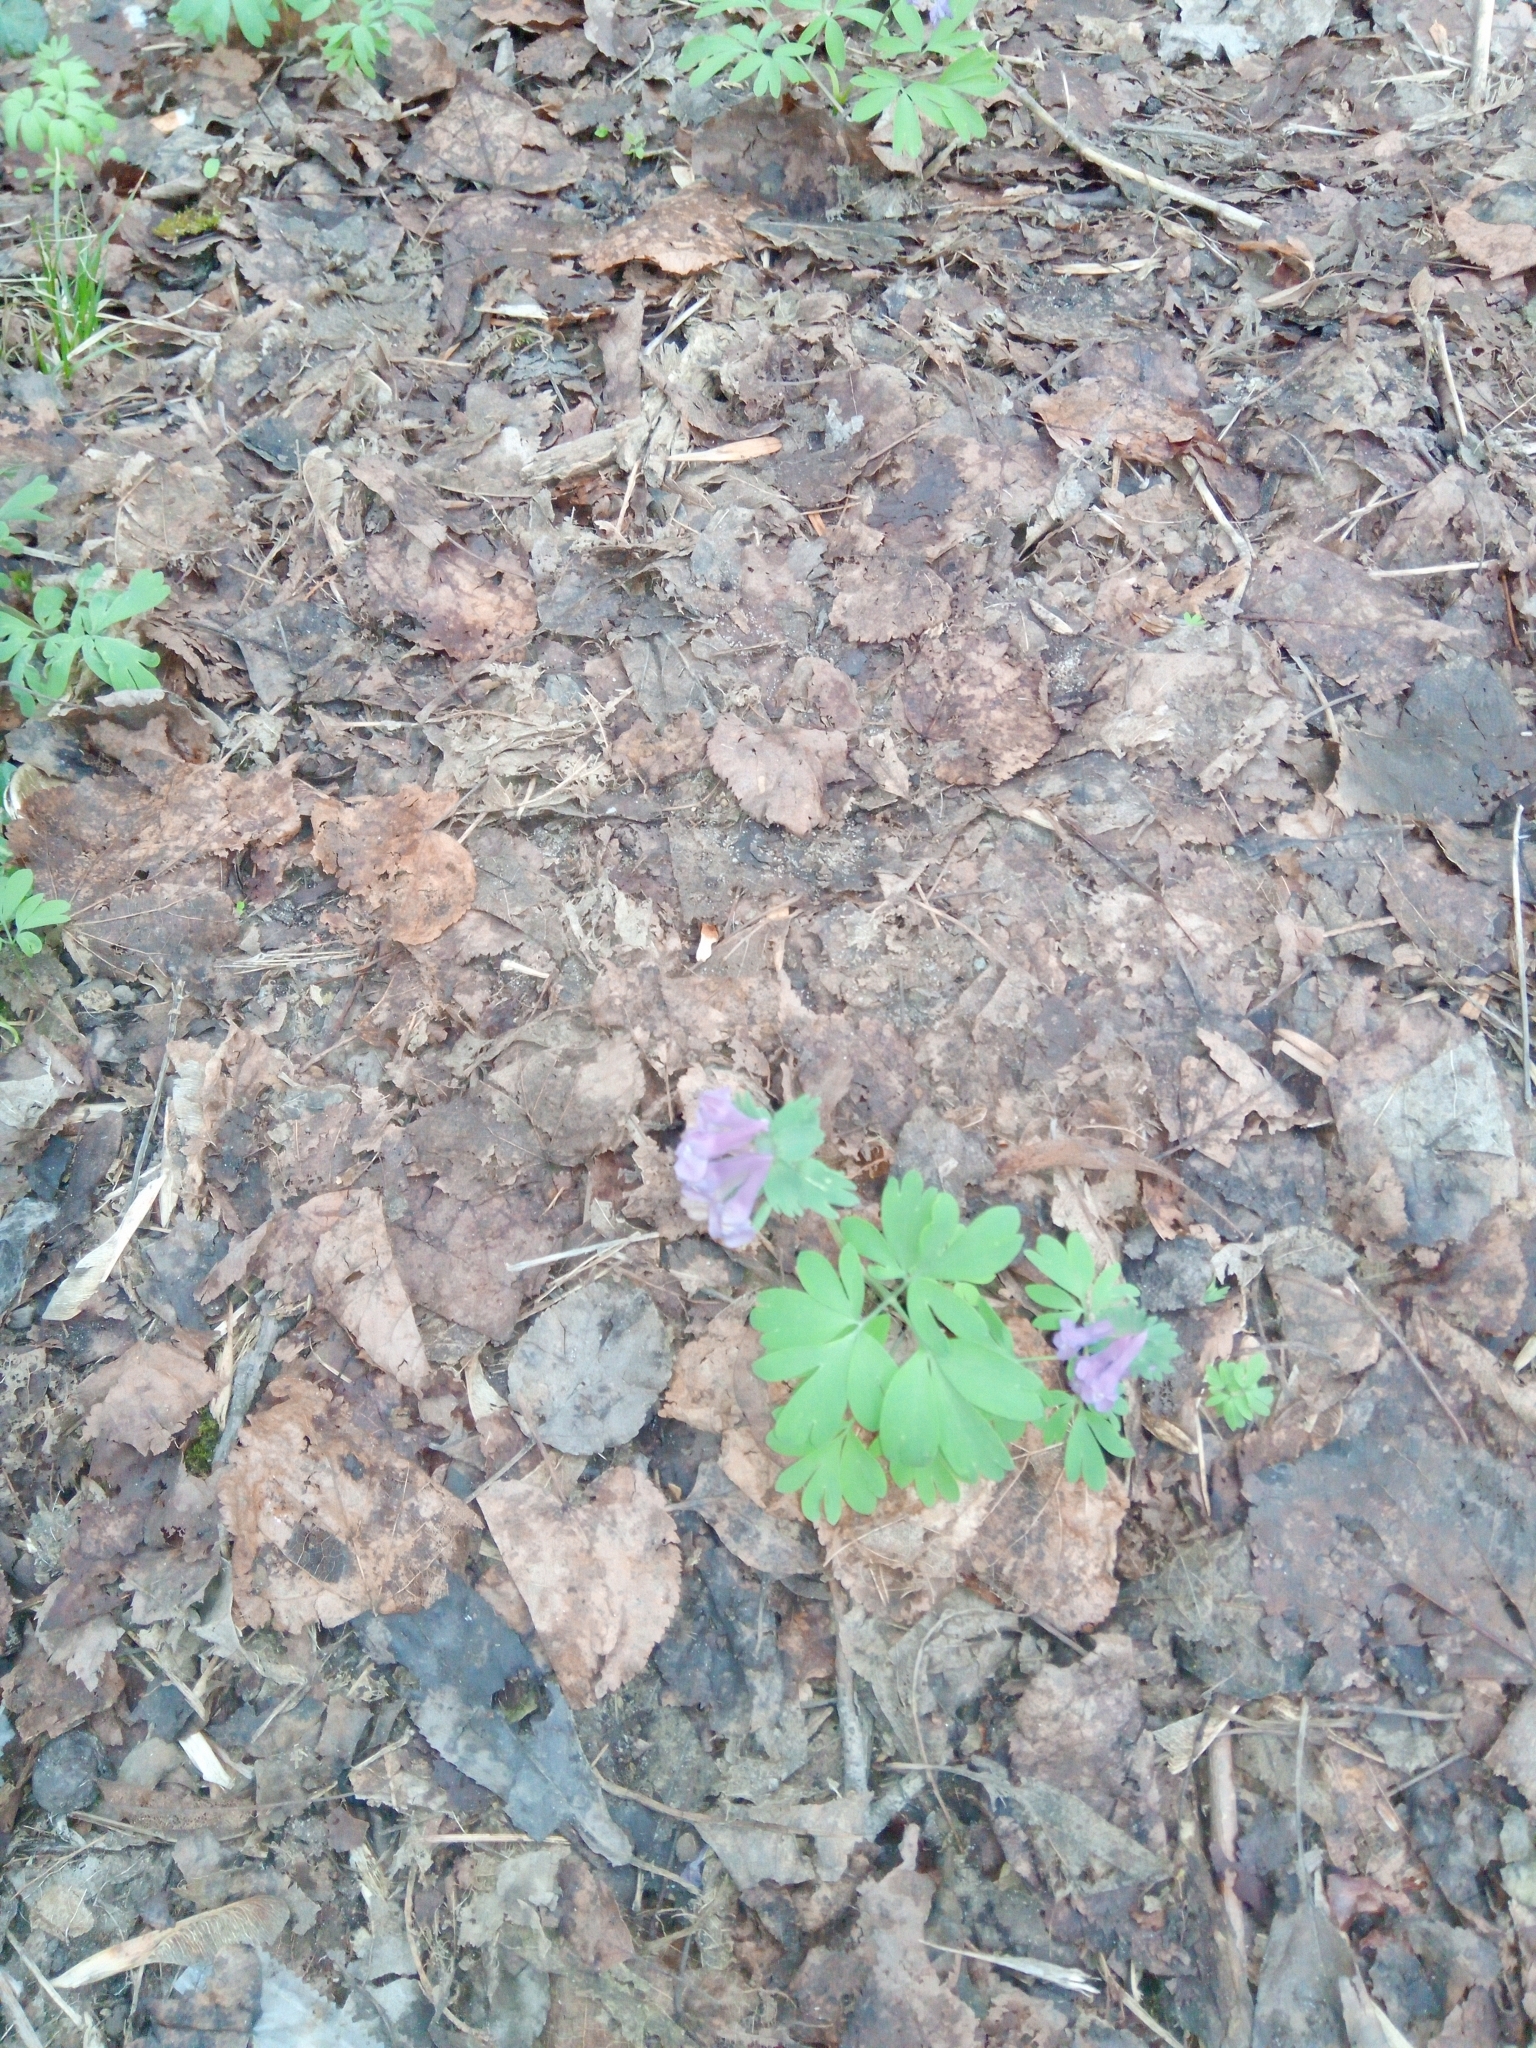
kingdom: Plantae
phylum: Tracheophyta
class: Magnoliopsida
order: Ranunculales
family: Papaveraceae
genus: Corydalis
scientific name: Corydalis solida
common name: Bird-in-a-bush
